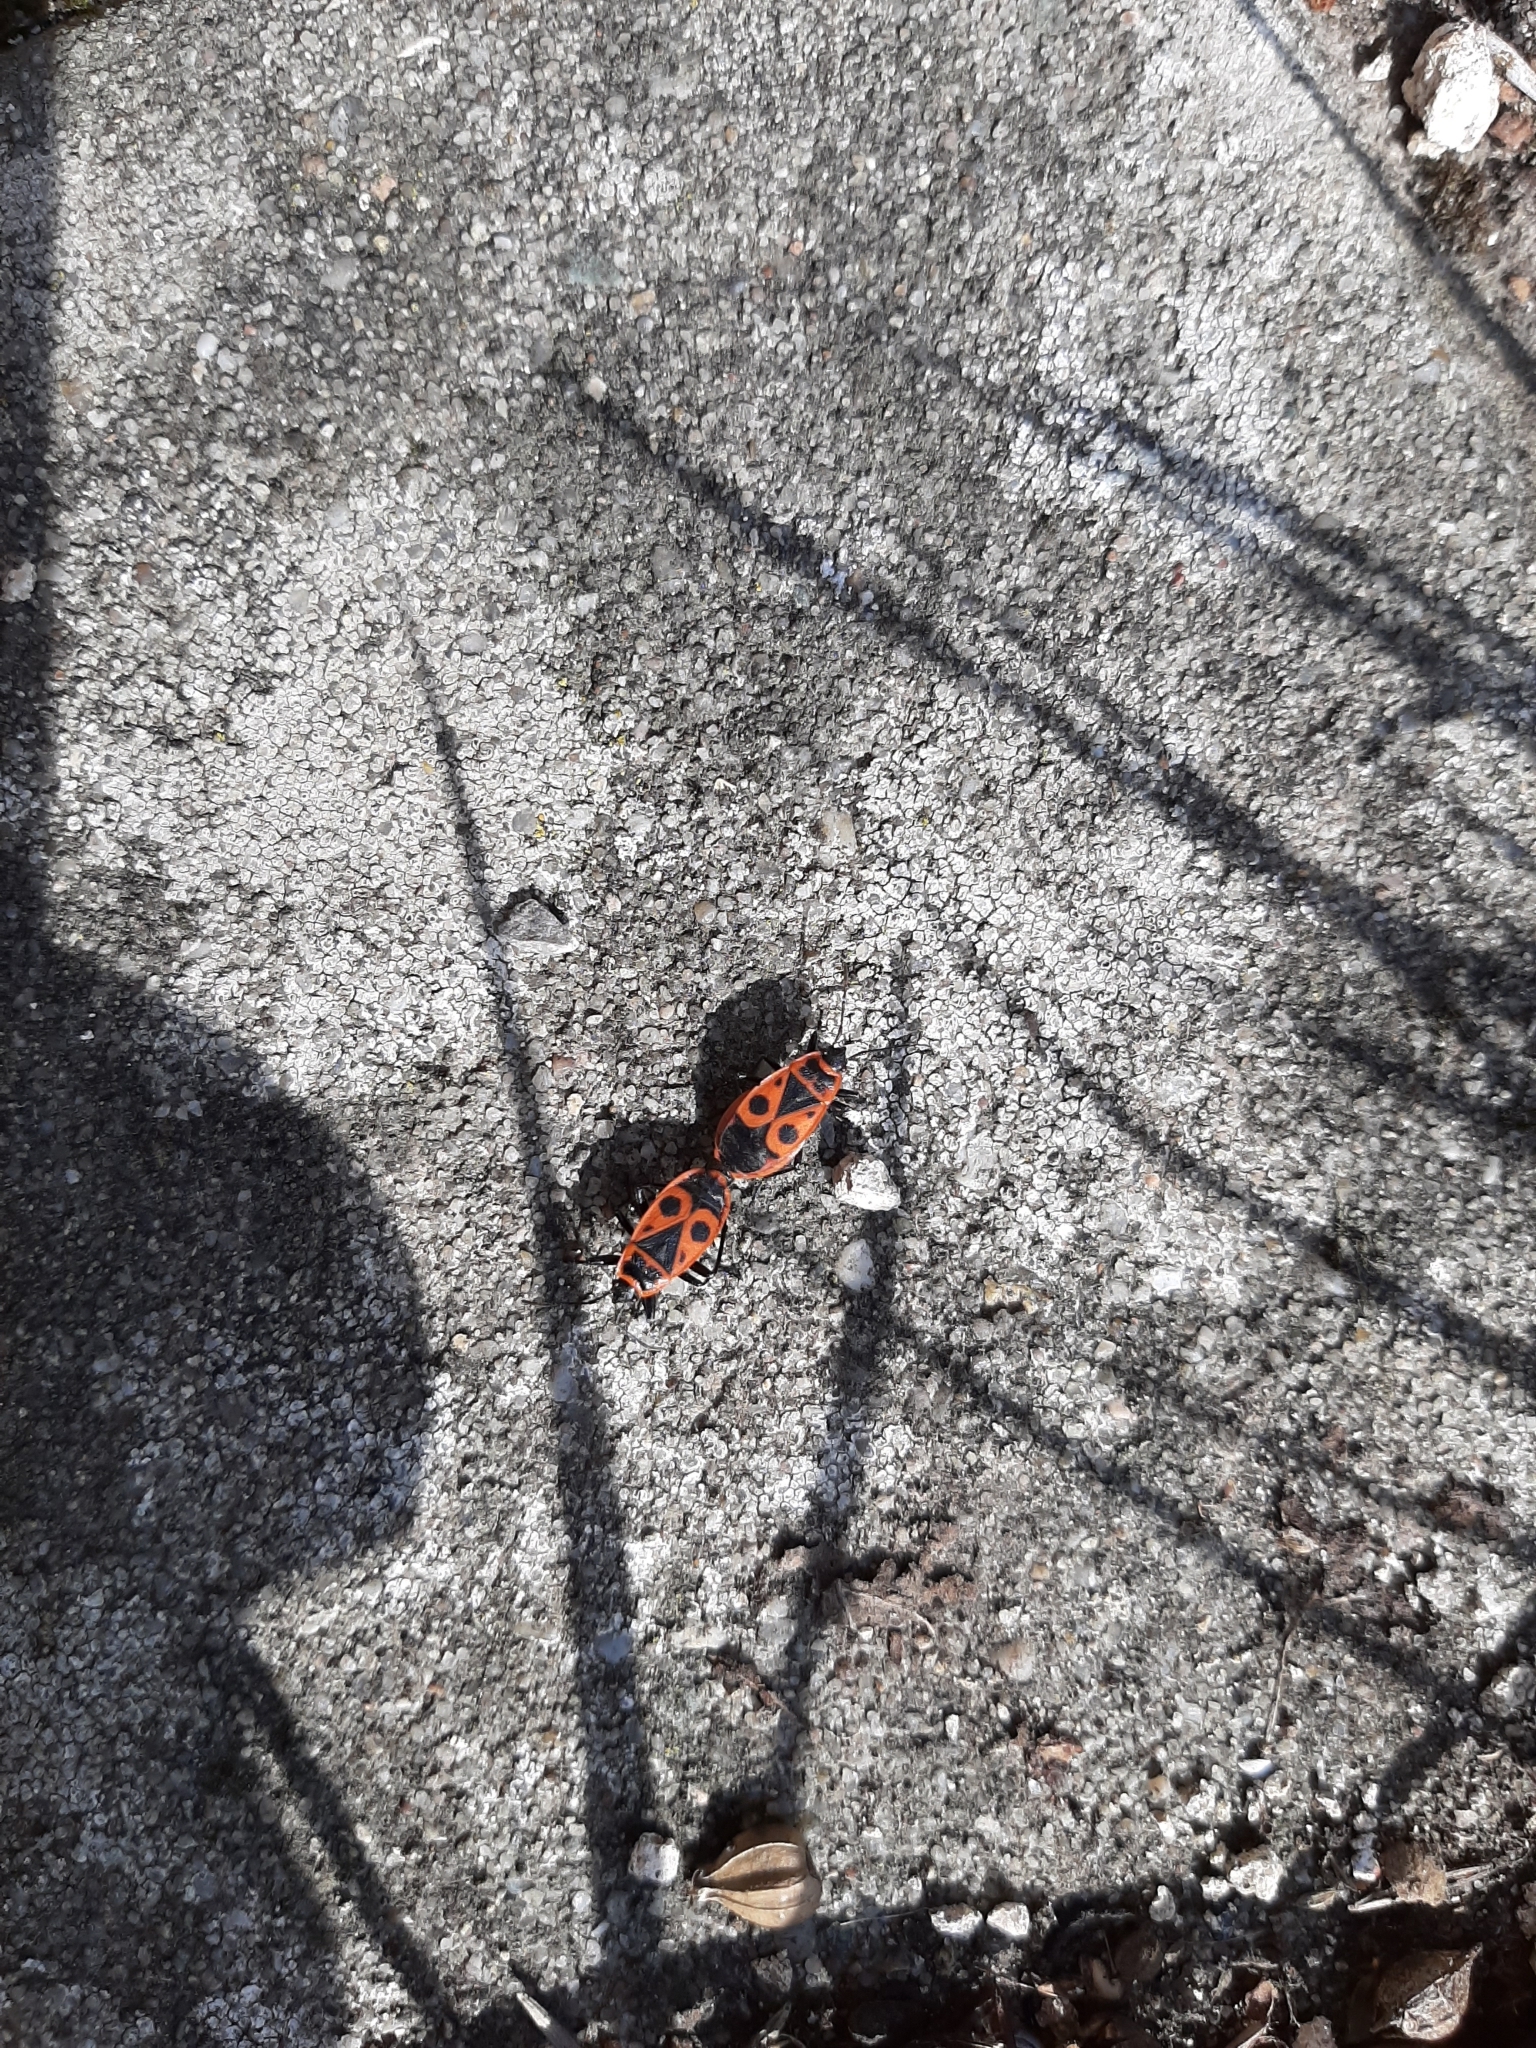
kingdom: Animalia
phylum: Arthropoda
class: Insecta
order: Hemiptera
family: Pyrrhocoridae
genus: Pyrrhocoris
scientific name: Pyrrhocoris apterus
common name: Firebug
